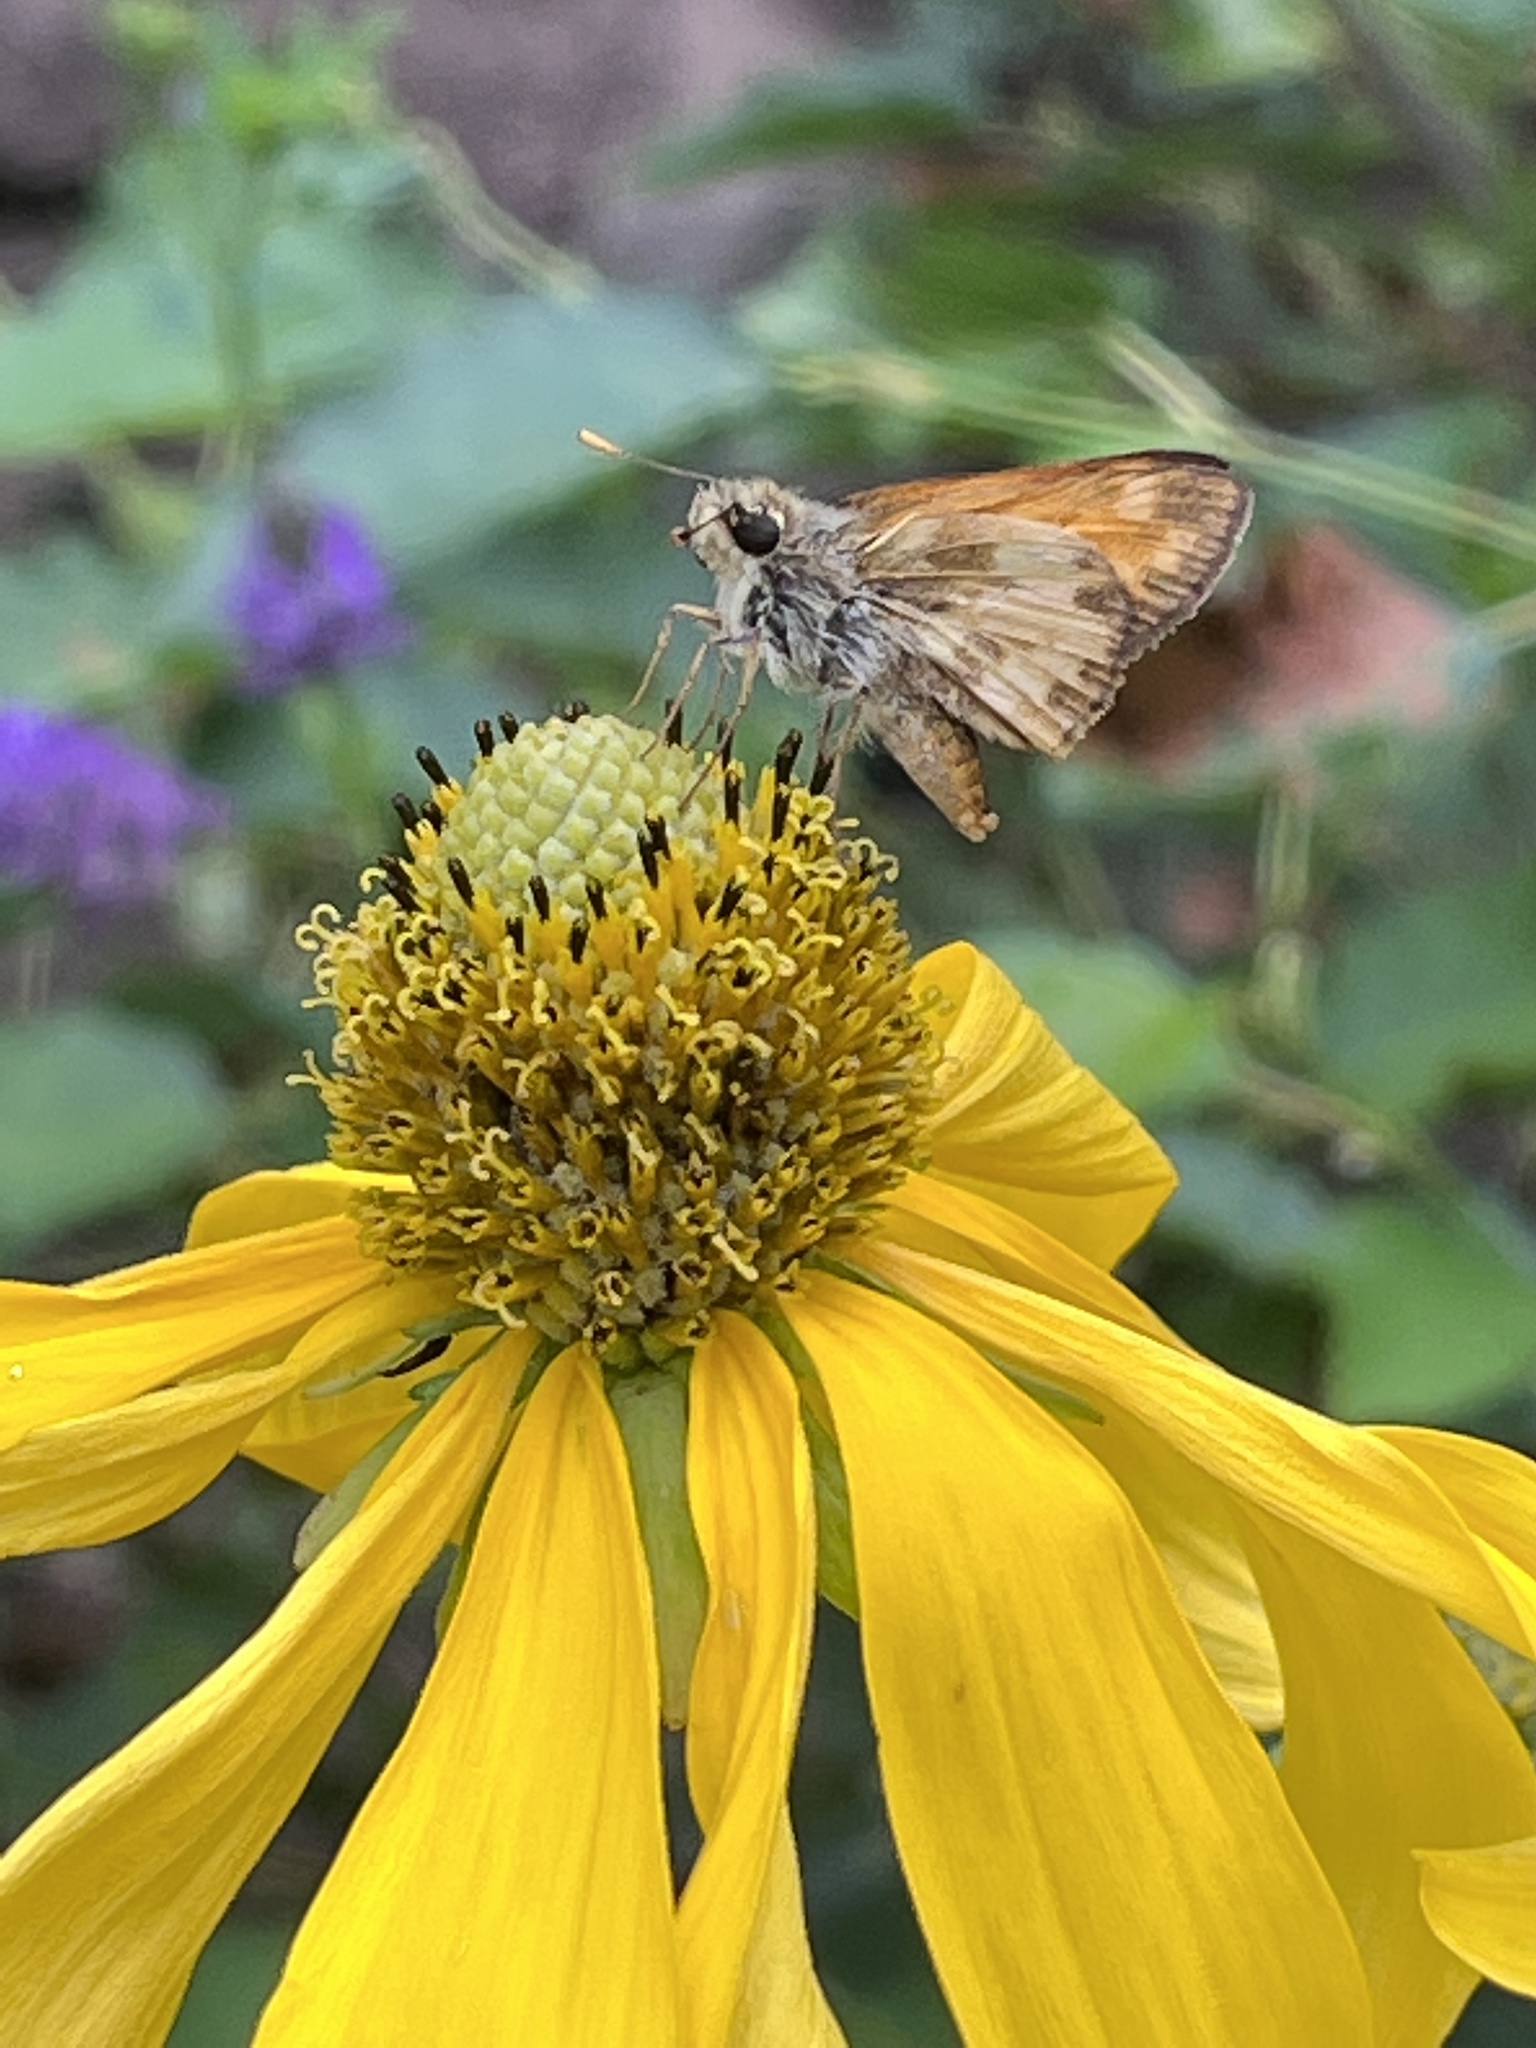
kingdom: Animalia
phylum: Arthropoda
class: Insecta
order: Lepidoptera
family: Hesperiidae
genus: Lon
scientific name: Lon taxiles
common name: Taxiles skipper
